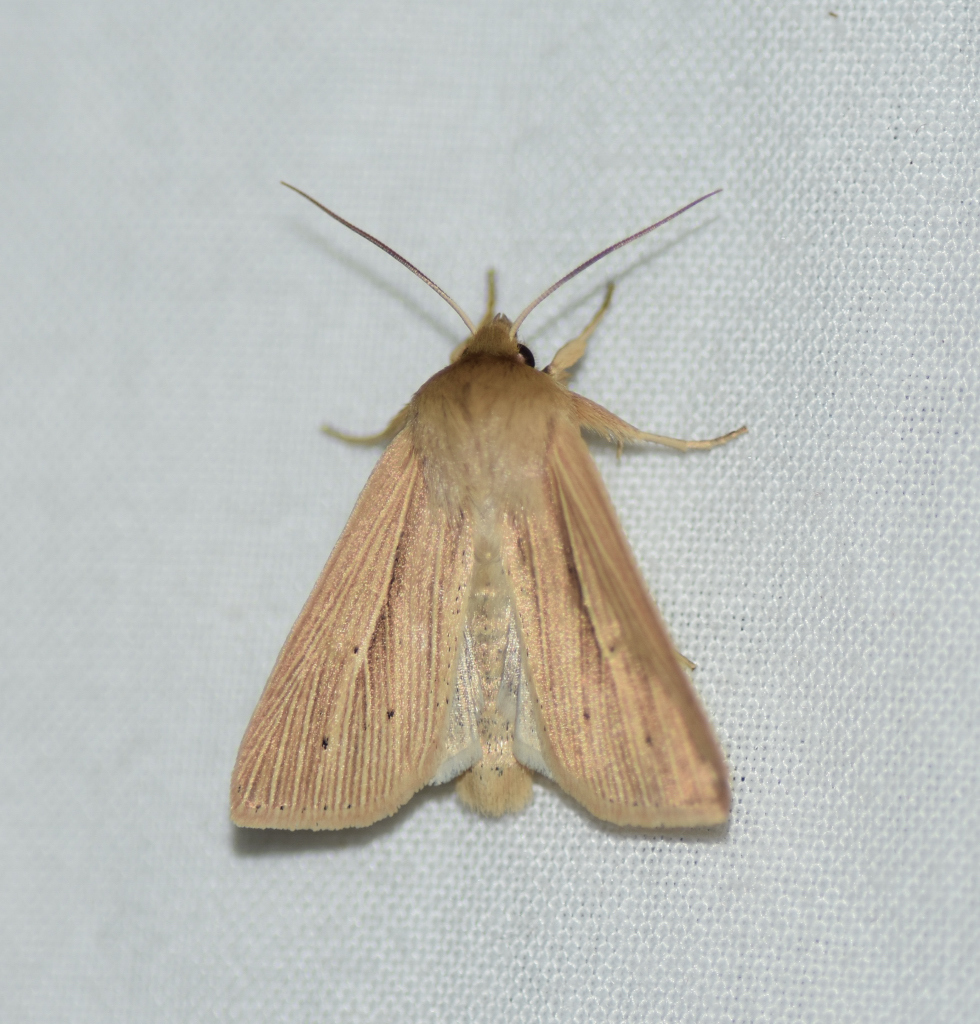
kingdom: Animalia
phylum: Arthropoda
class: Insecta
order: Lepidoptera
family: Noctuidae
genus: Mythimna
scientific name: Mythimna oxygala
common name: Lesser wainscot
